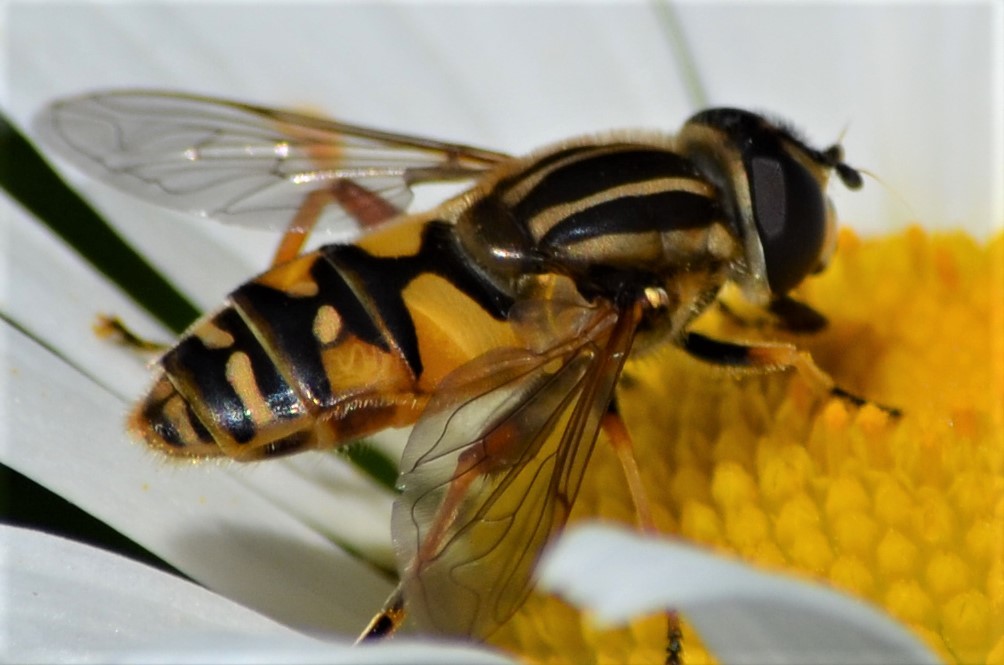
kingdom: Animalia
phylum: Arthropoda
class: Insecta
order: Diptera
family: Syrphidae
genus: Helophilus
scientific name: Helophilus pendulus
